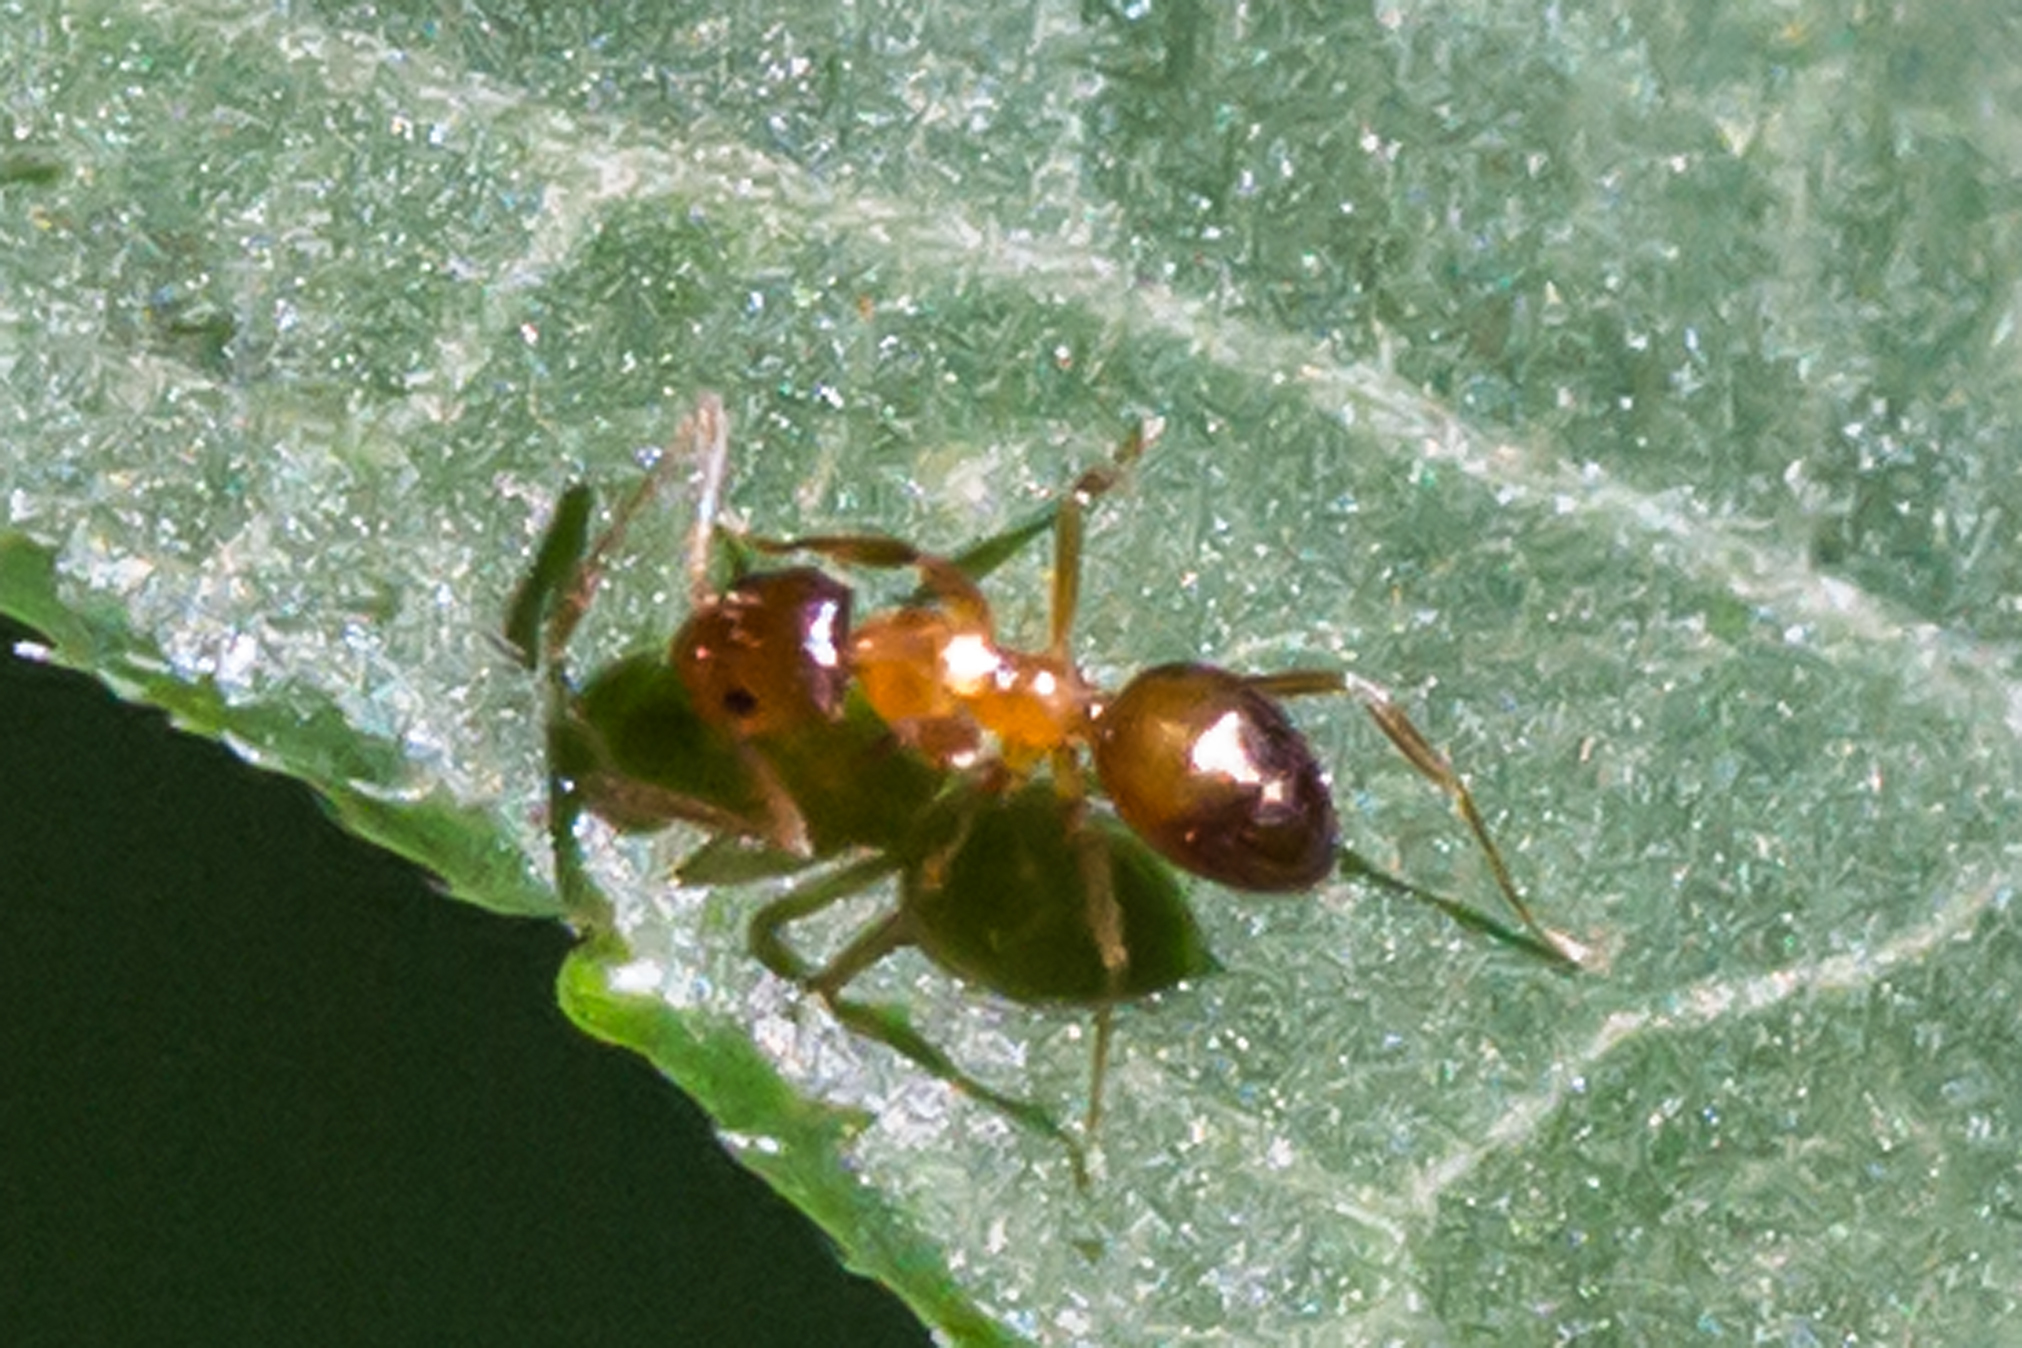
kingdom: Animalia
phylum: Arthropoda
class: Insecta
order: Hymenoptera
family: Formicidae
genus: Paratrechina
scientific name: Paratrechina flavipes
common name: Eastern asian formicine ant
